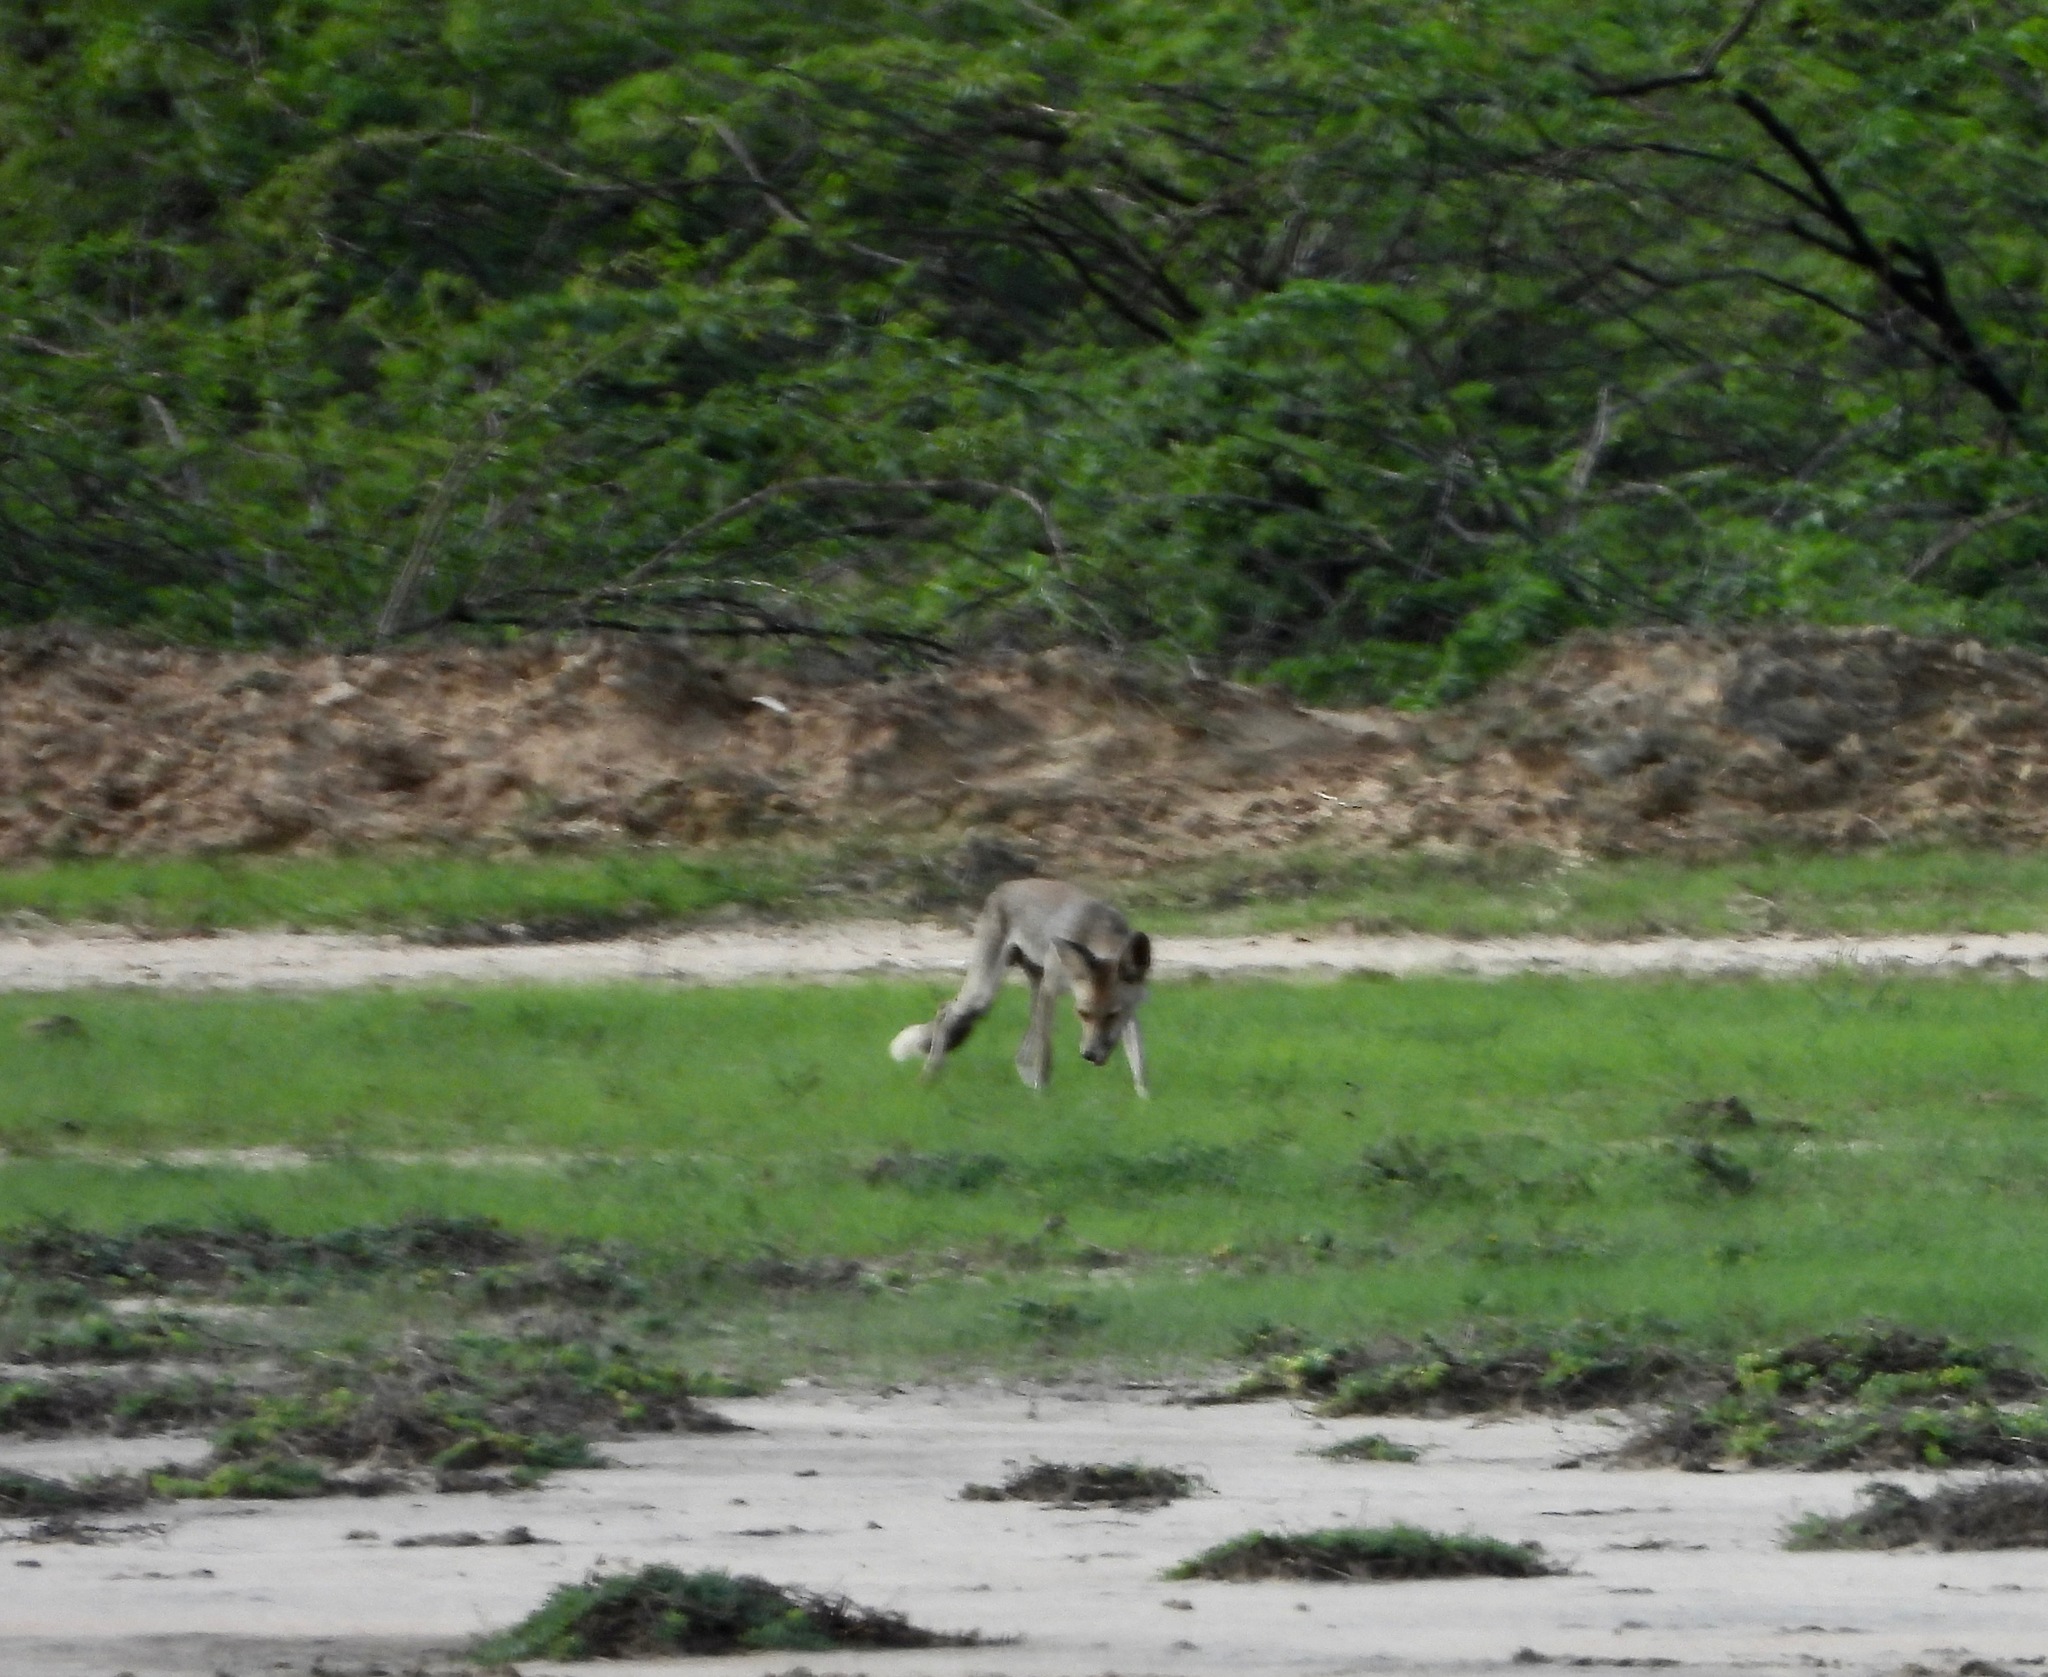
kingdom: Animalia
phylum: Chordata
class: Mammalia
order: Carnivora
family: Canidae
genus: Vulpes
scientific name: Vulpes vulpes
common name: Red fox
